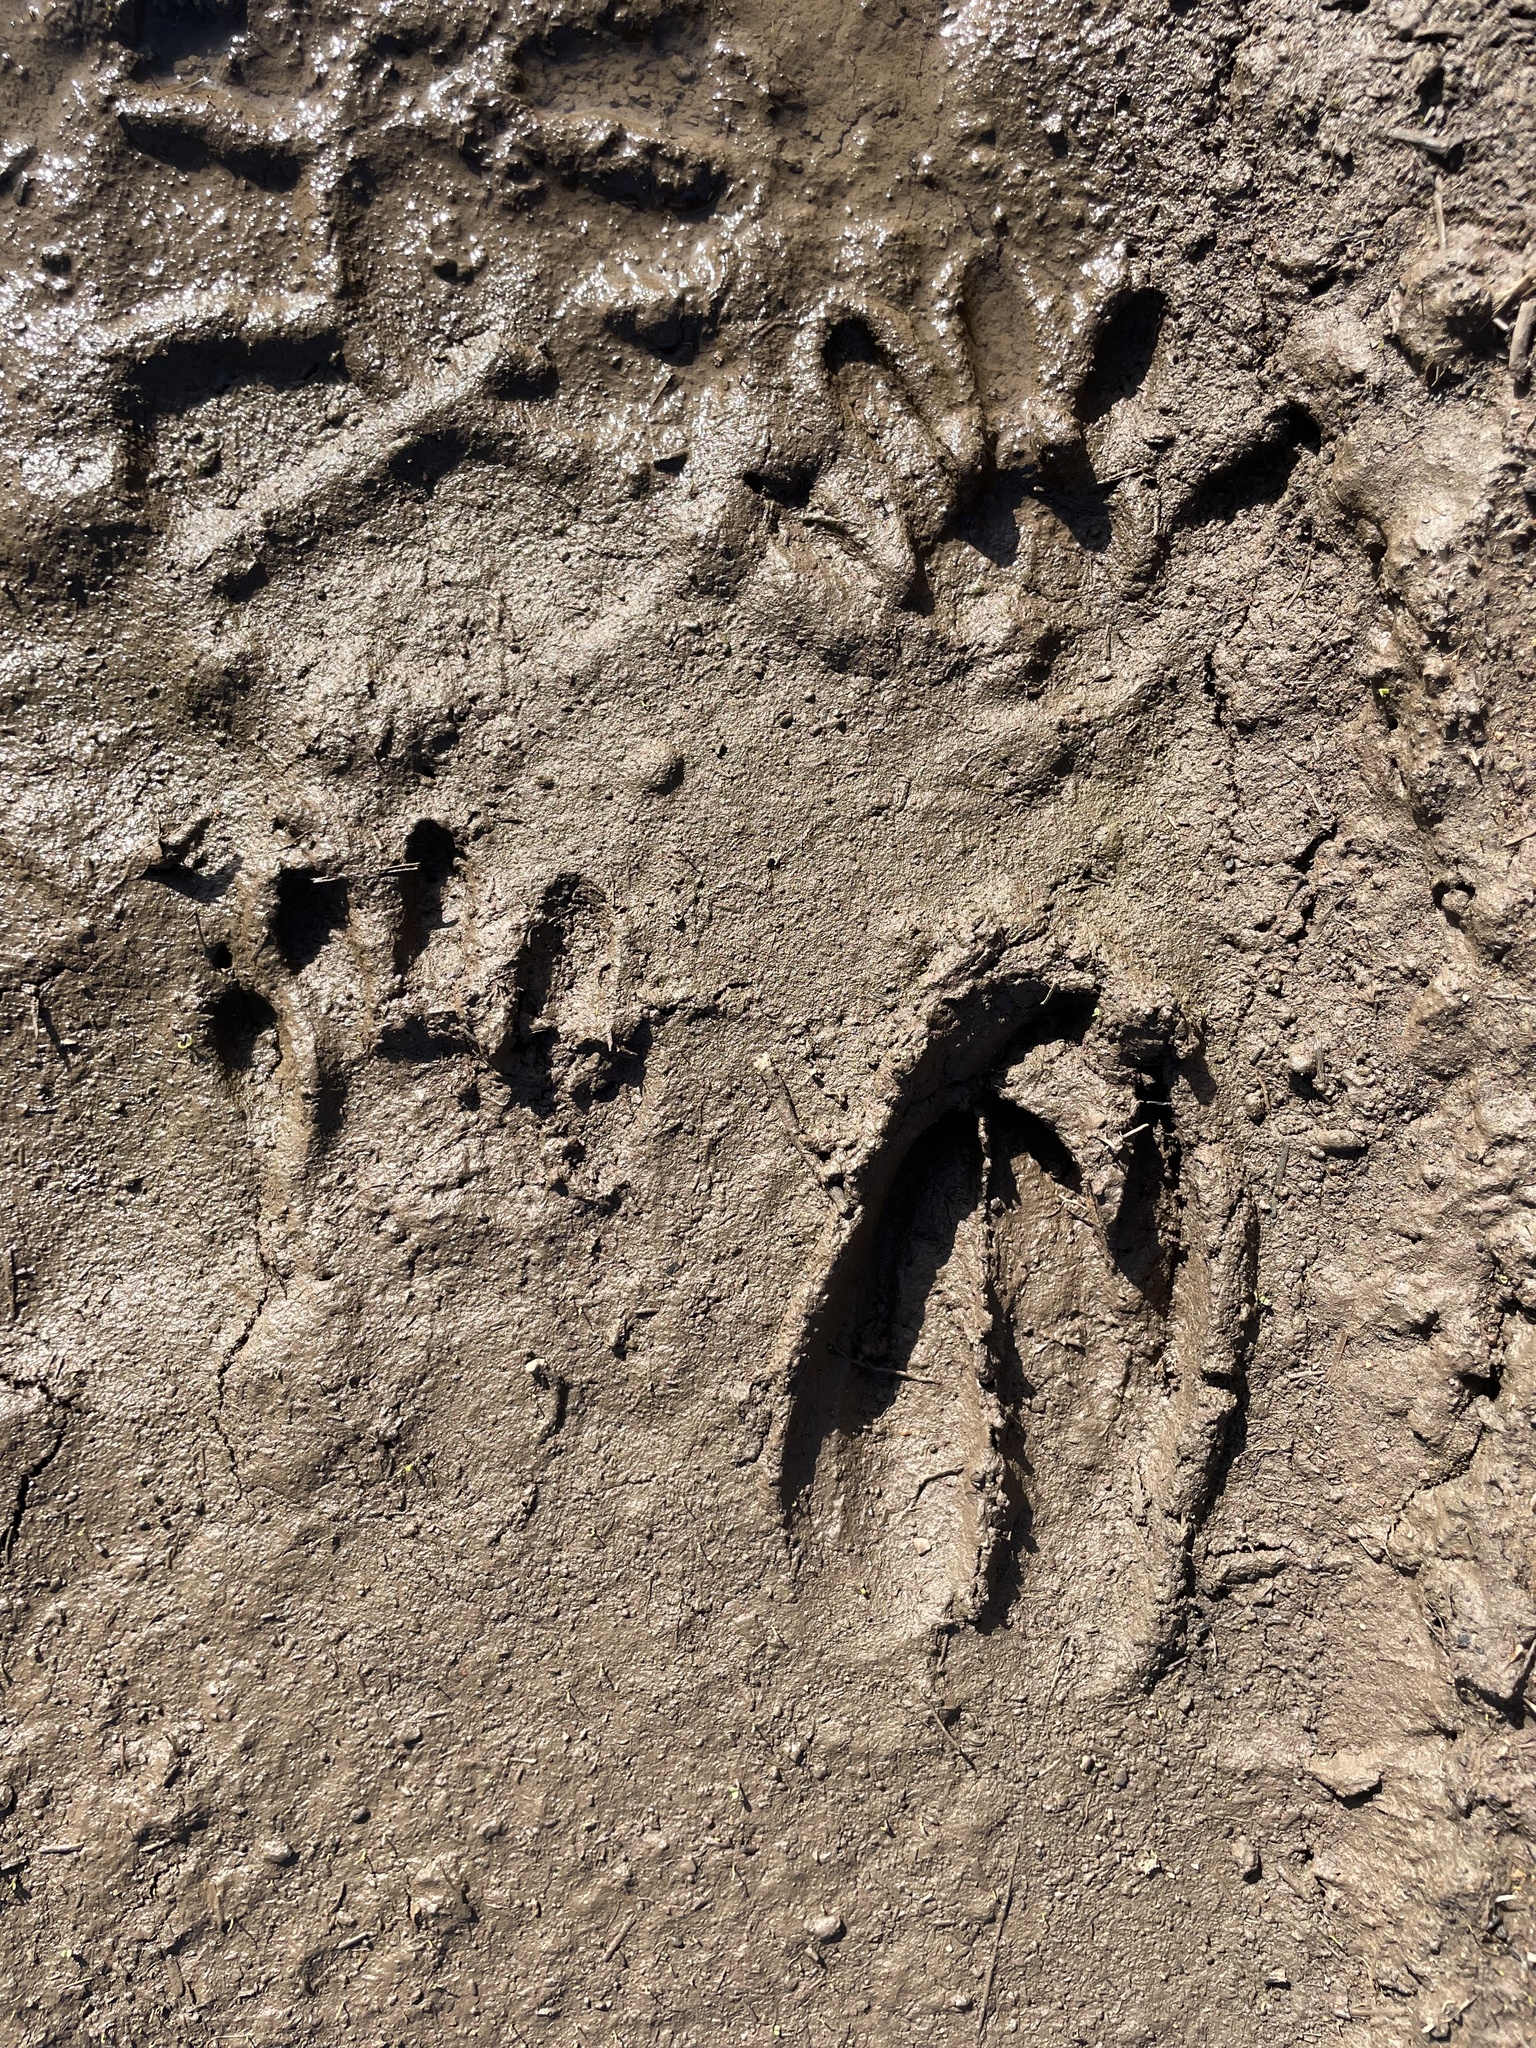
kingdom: Animalia
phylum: Chordata
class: Mammalia
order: Carnivora
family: Procyonidae
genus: Procyon
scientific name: Procyon lotor
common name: Raccoon
